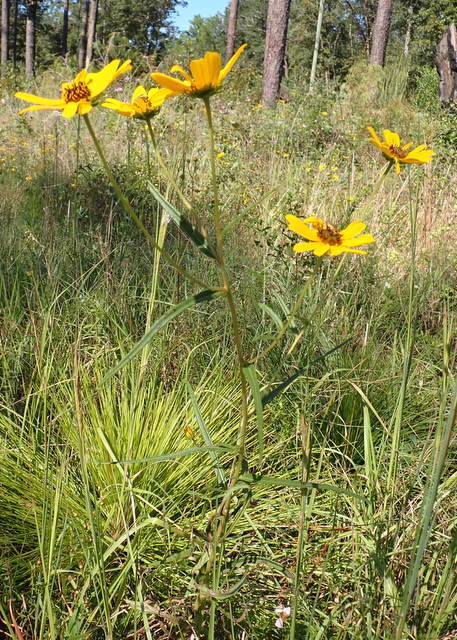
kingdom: Plantae
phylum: Tracheophyta
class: Magnoliopsida
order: Asterales
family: Asteraceae
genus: Helianthus
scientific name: Helianthus angustifolius
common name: Swamp sunflower
